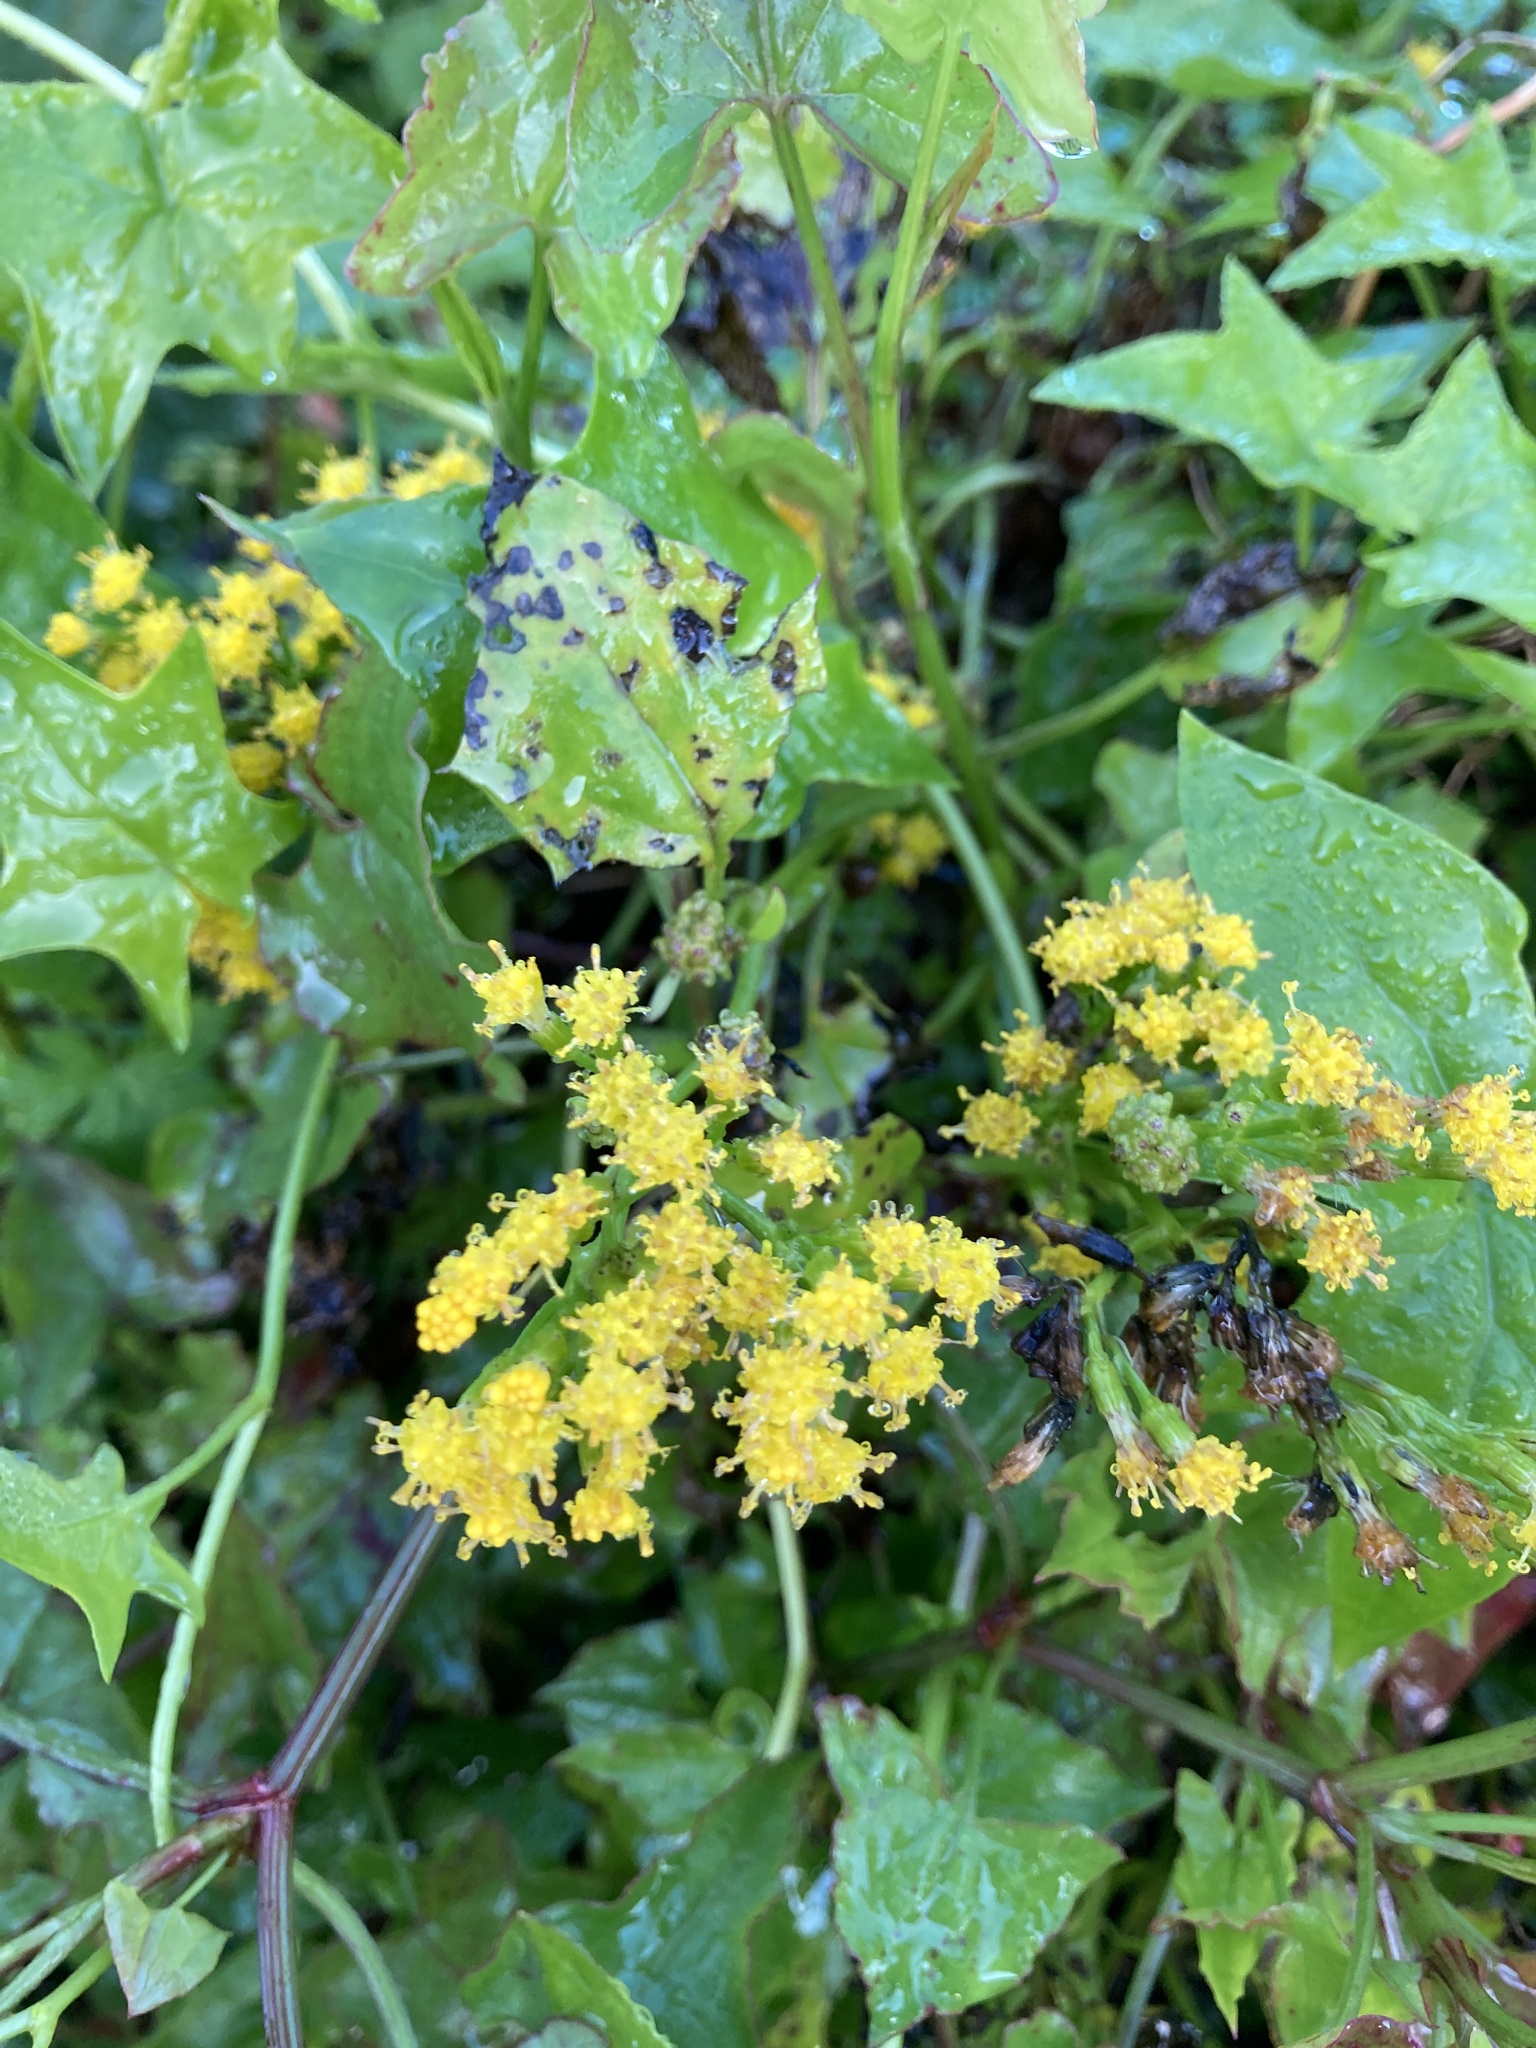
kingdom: Plantae
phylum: Tracheophyta
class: Magnoliopsida
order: Asterales
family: Asteraceae
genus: Delairea
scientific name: Delairea odorata
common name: Cape-ivy
